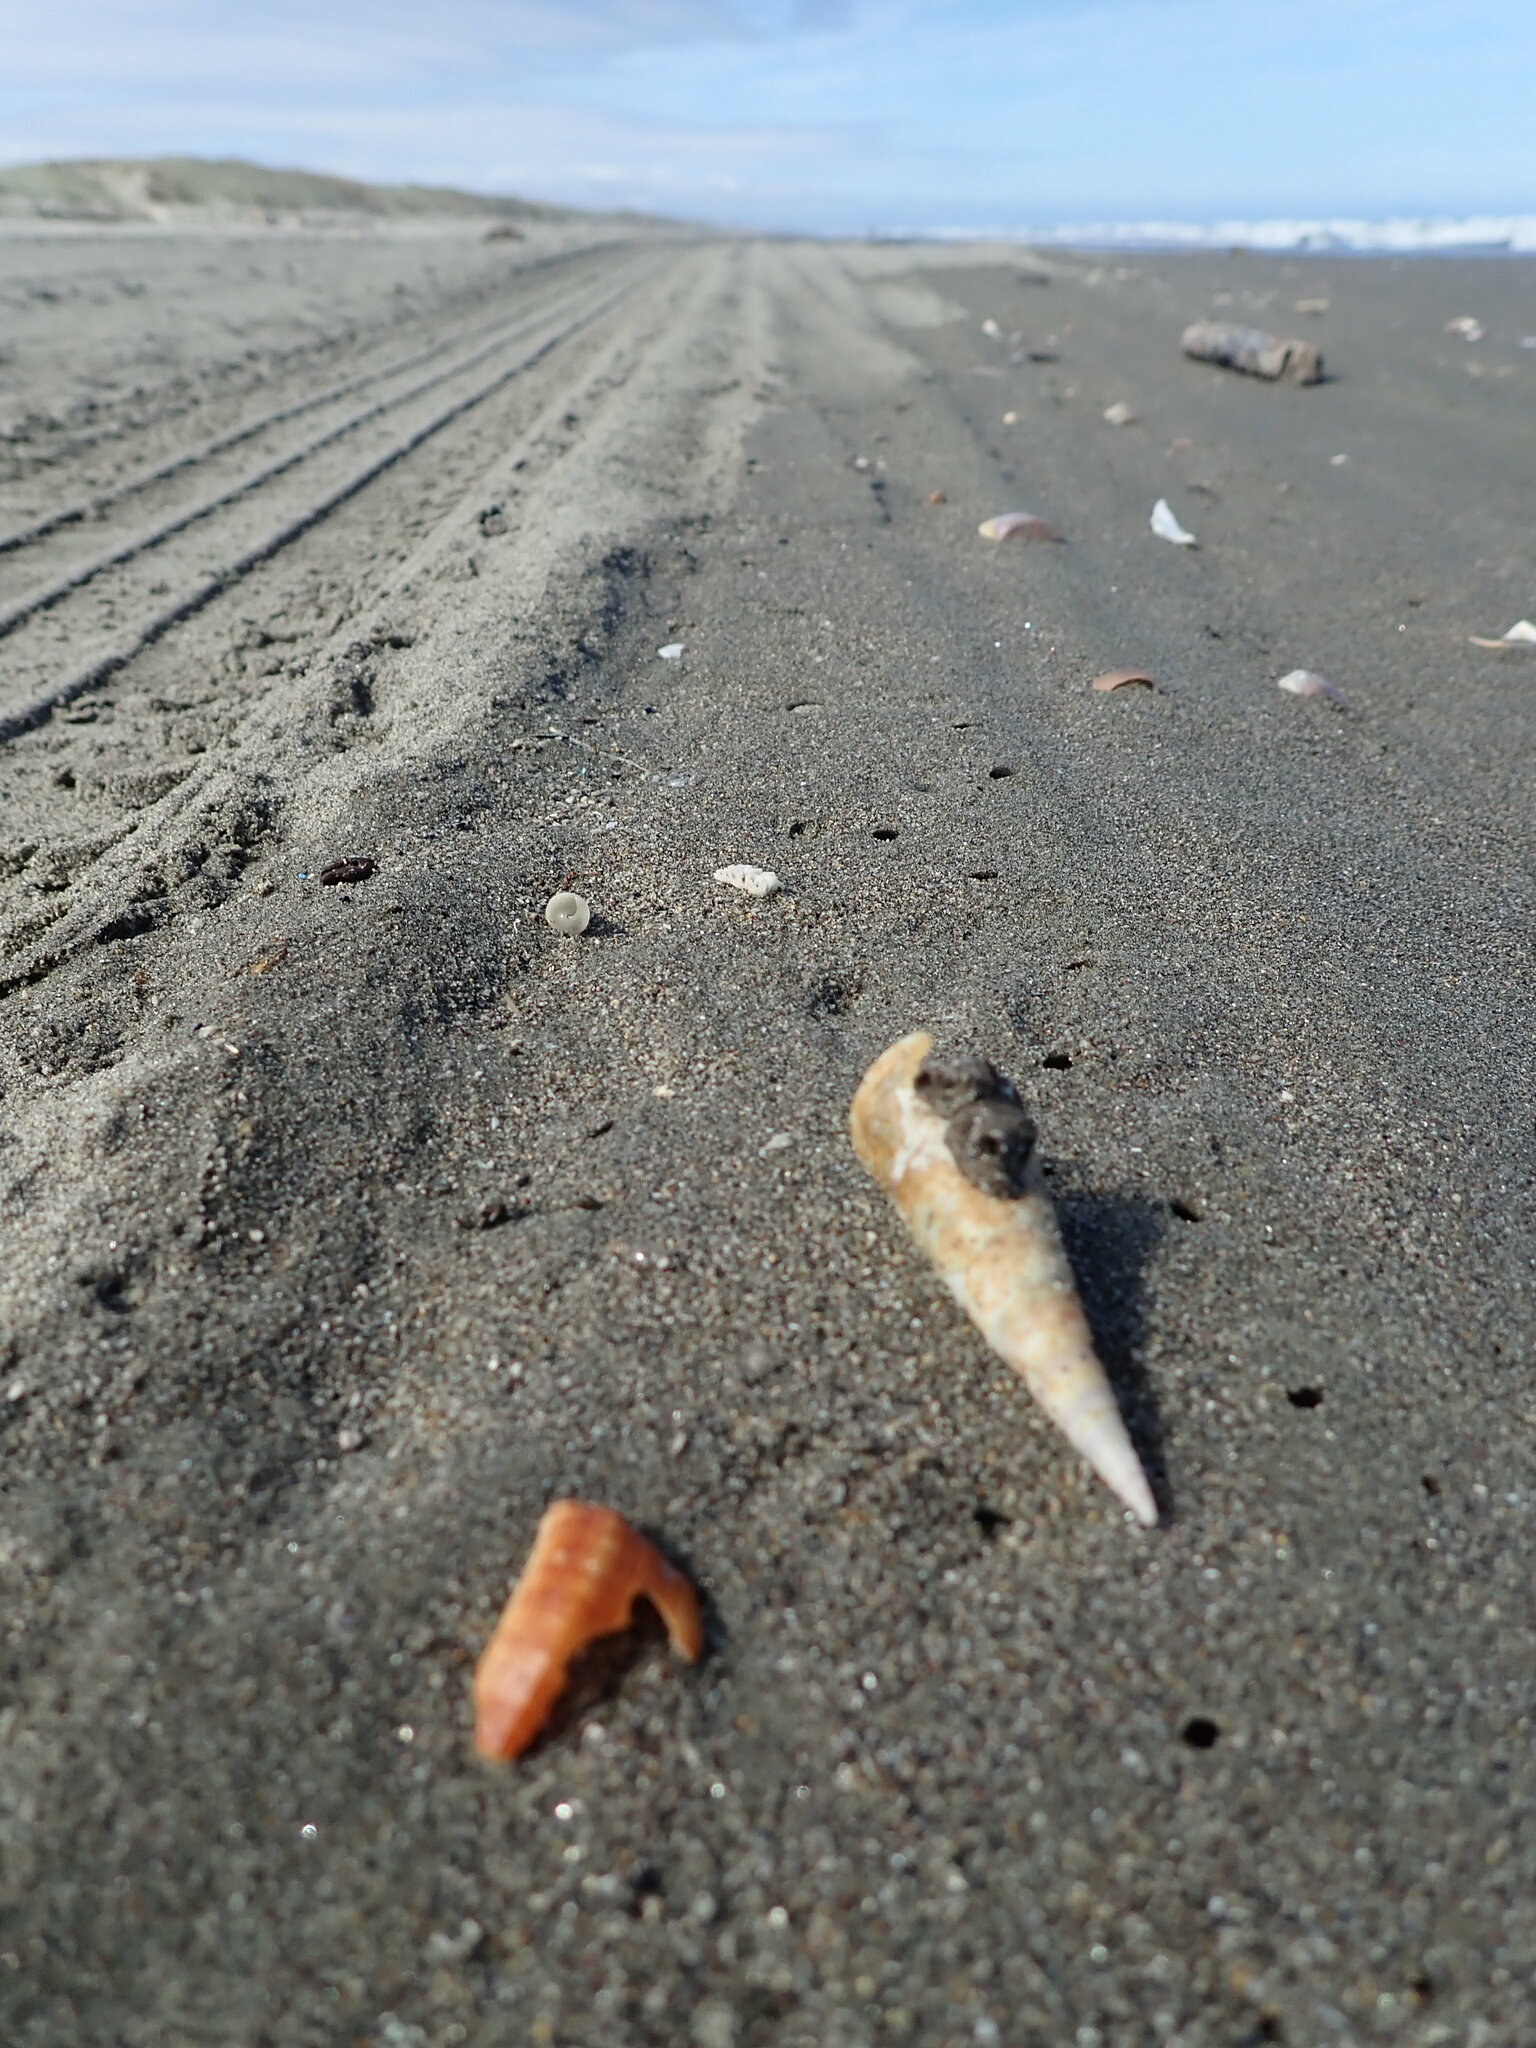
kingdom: Animalia
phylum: Mollusca
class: Gastropoda
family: Turritellidae
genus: Maoricolpus
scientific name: Maoricolpus roseus
